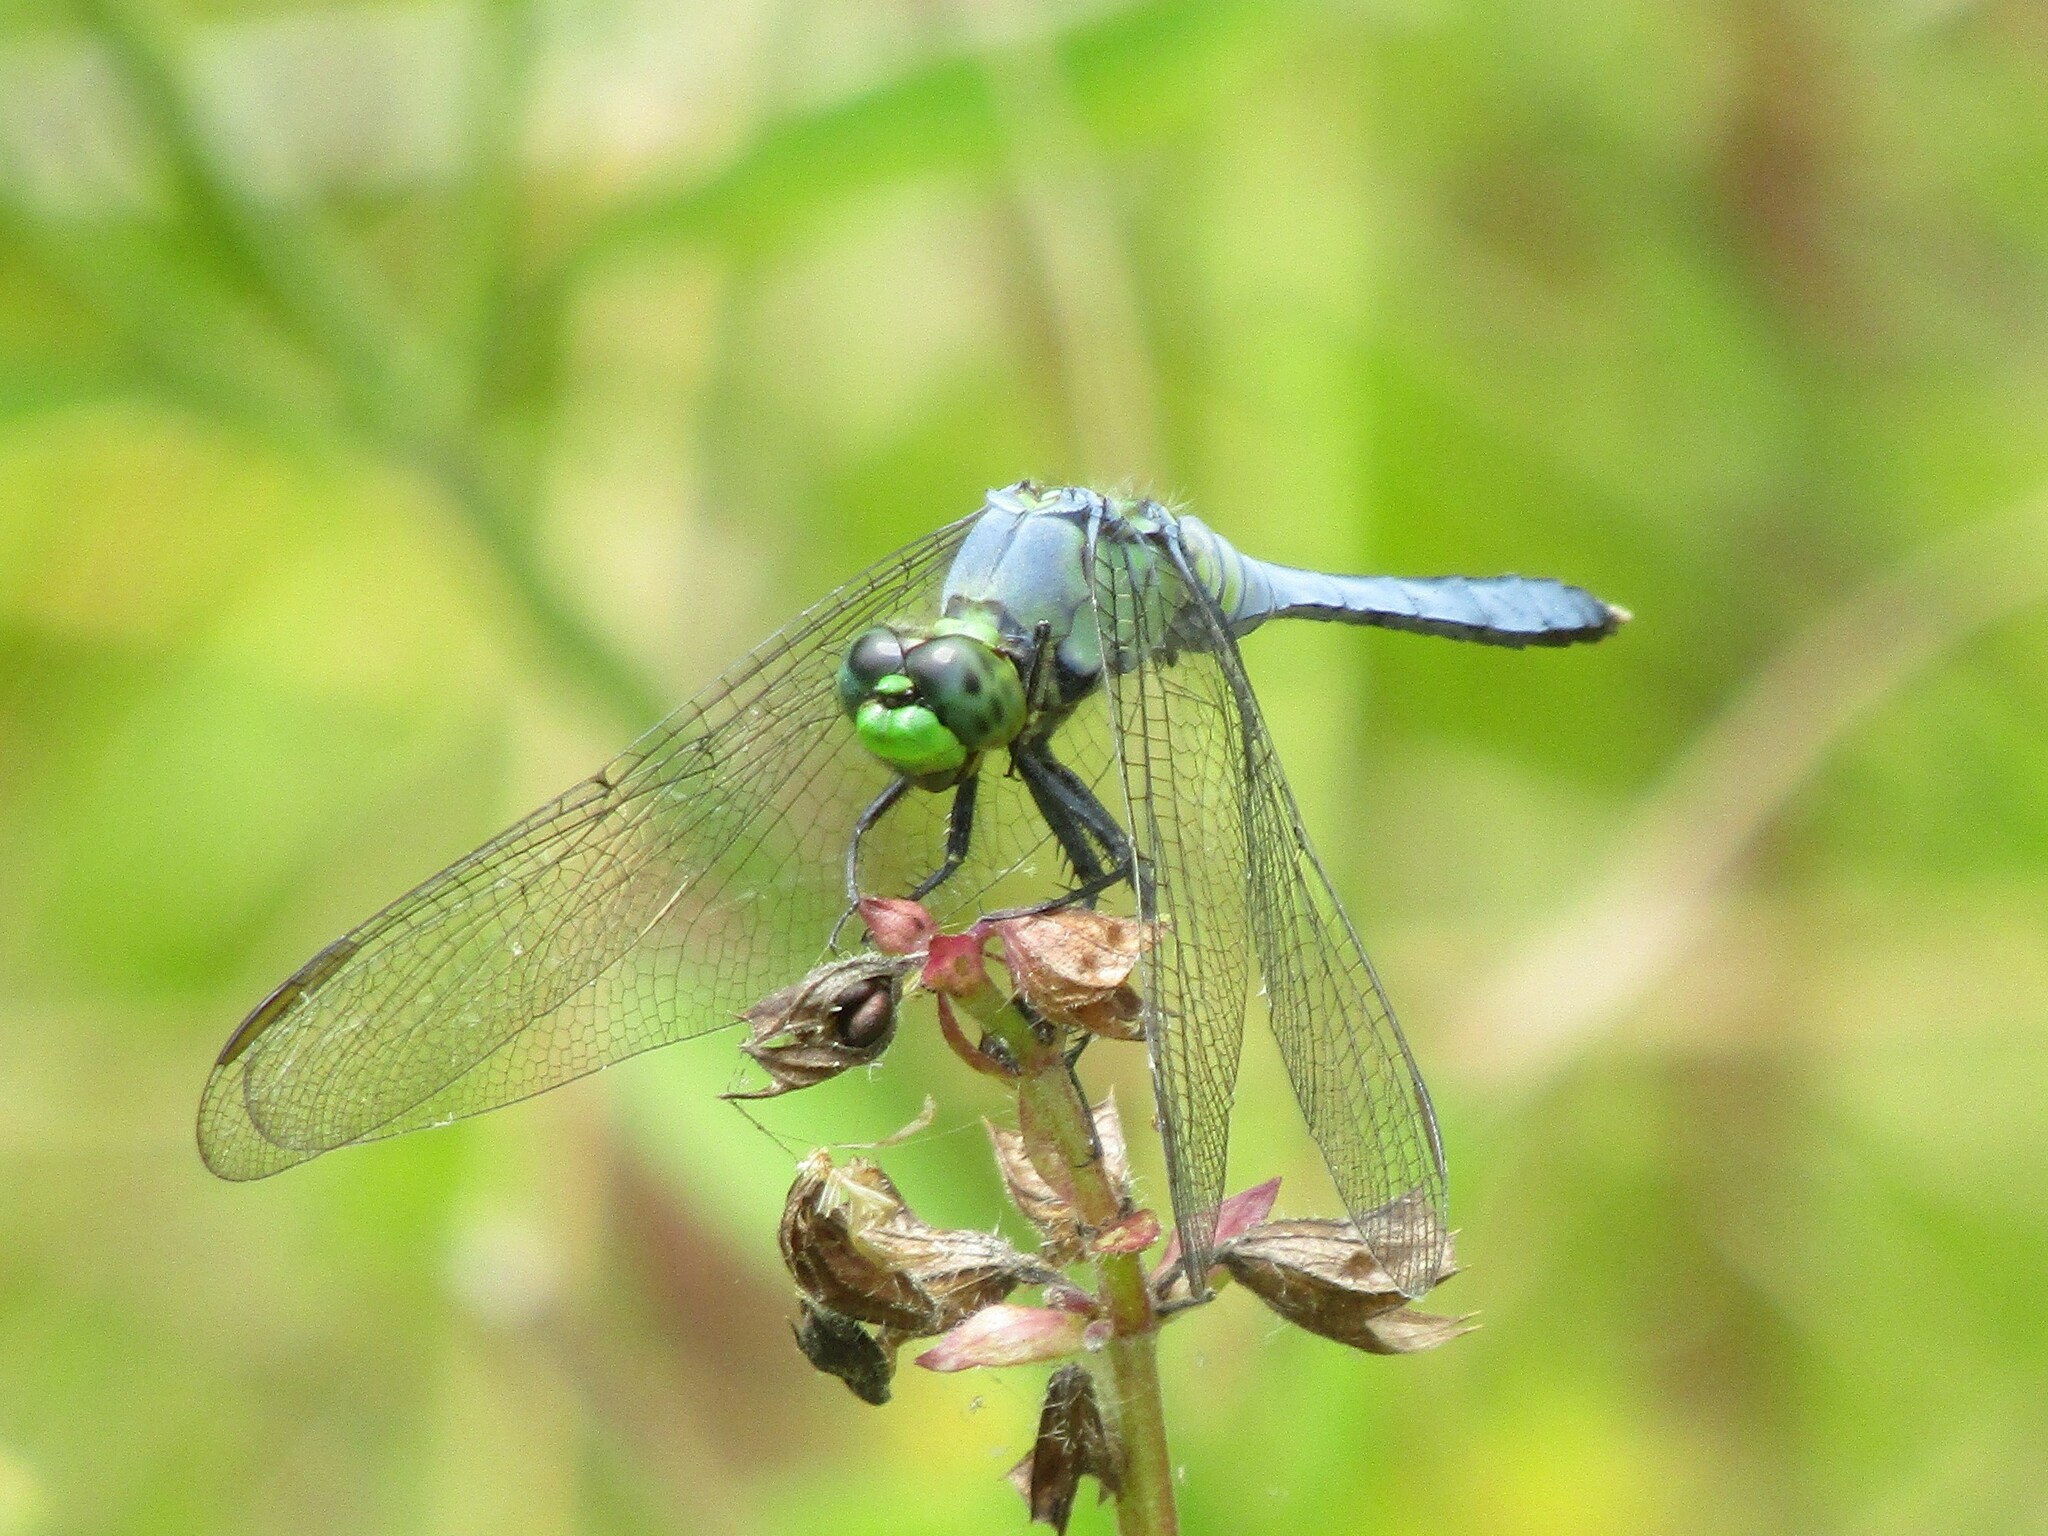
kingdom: Animalia
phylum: Arthropoda
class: Insecta
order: Odonata
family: Libellulidae
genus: Erythemis
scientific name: Erythemis simplicicollis
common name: Eastern pondhawk
